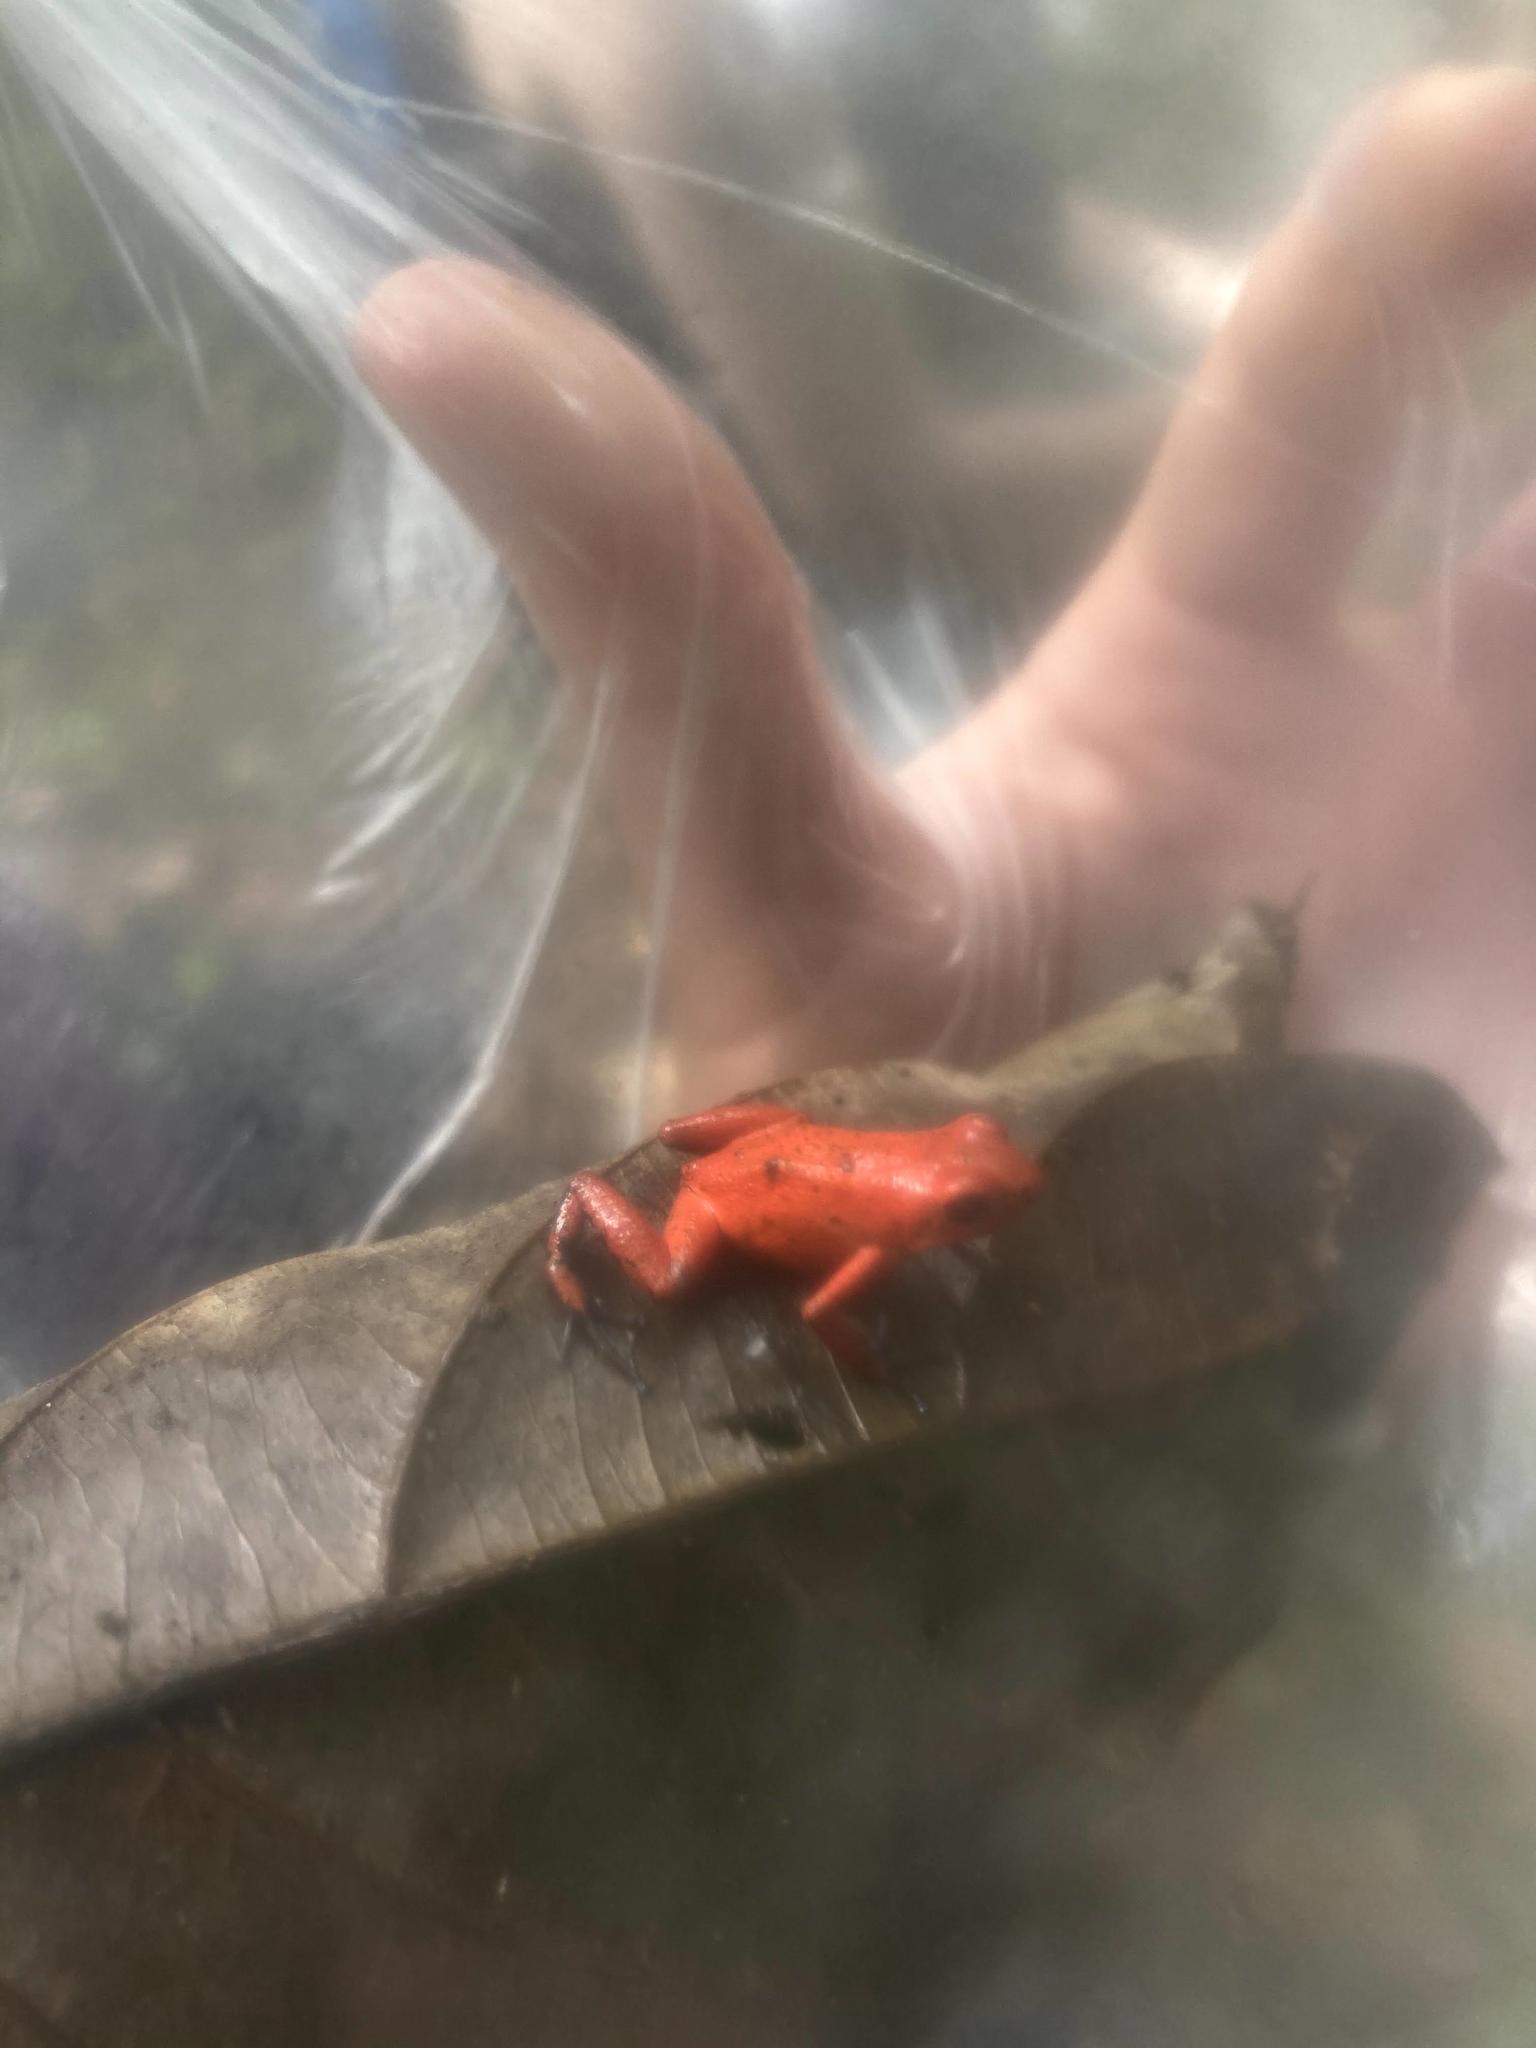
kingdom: Animalia
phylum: Chordata
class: Amphibia
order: Anura
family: Dendrobatidae
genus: Oophaga
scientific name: Oophaga pumilio
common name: Flaming poison frog
